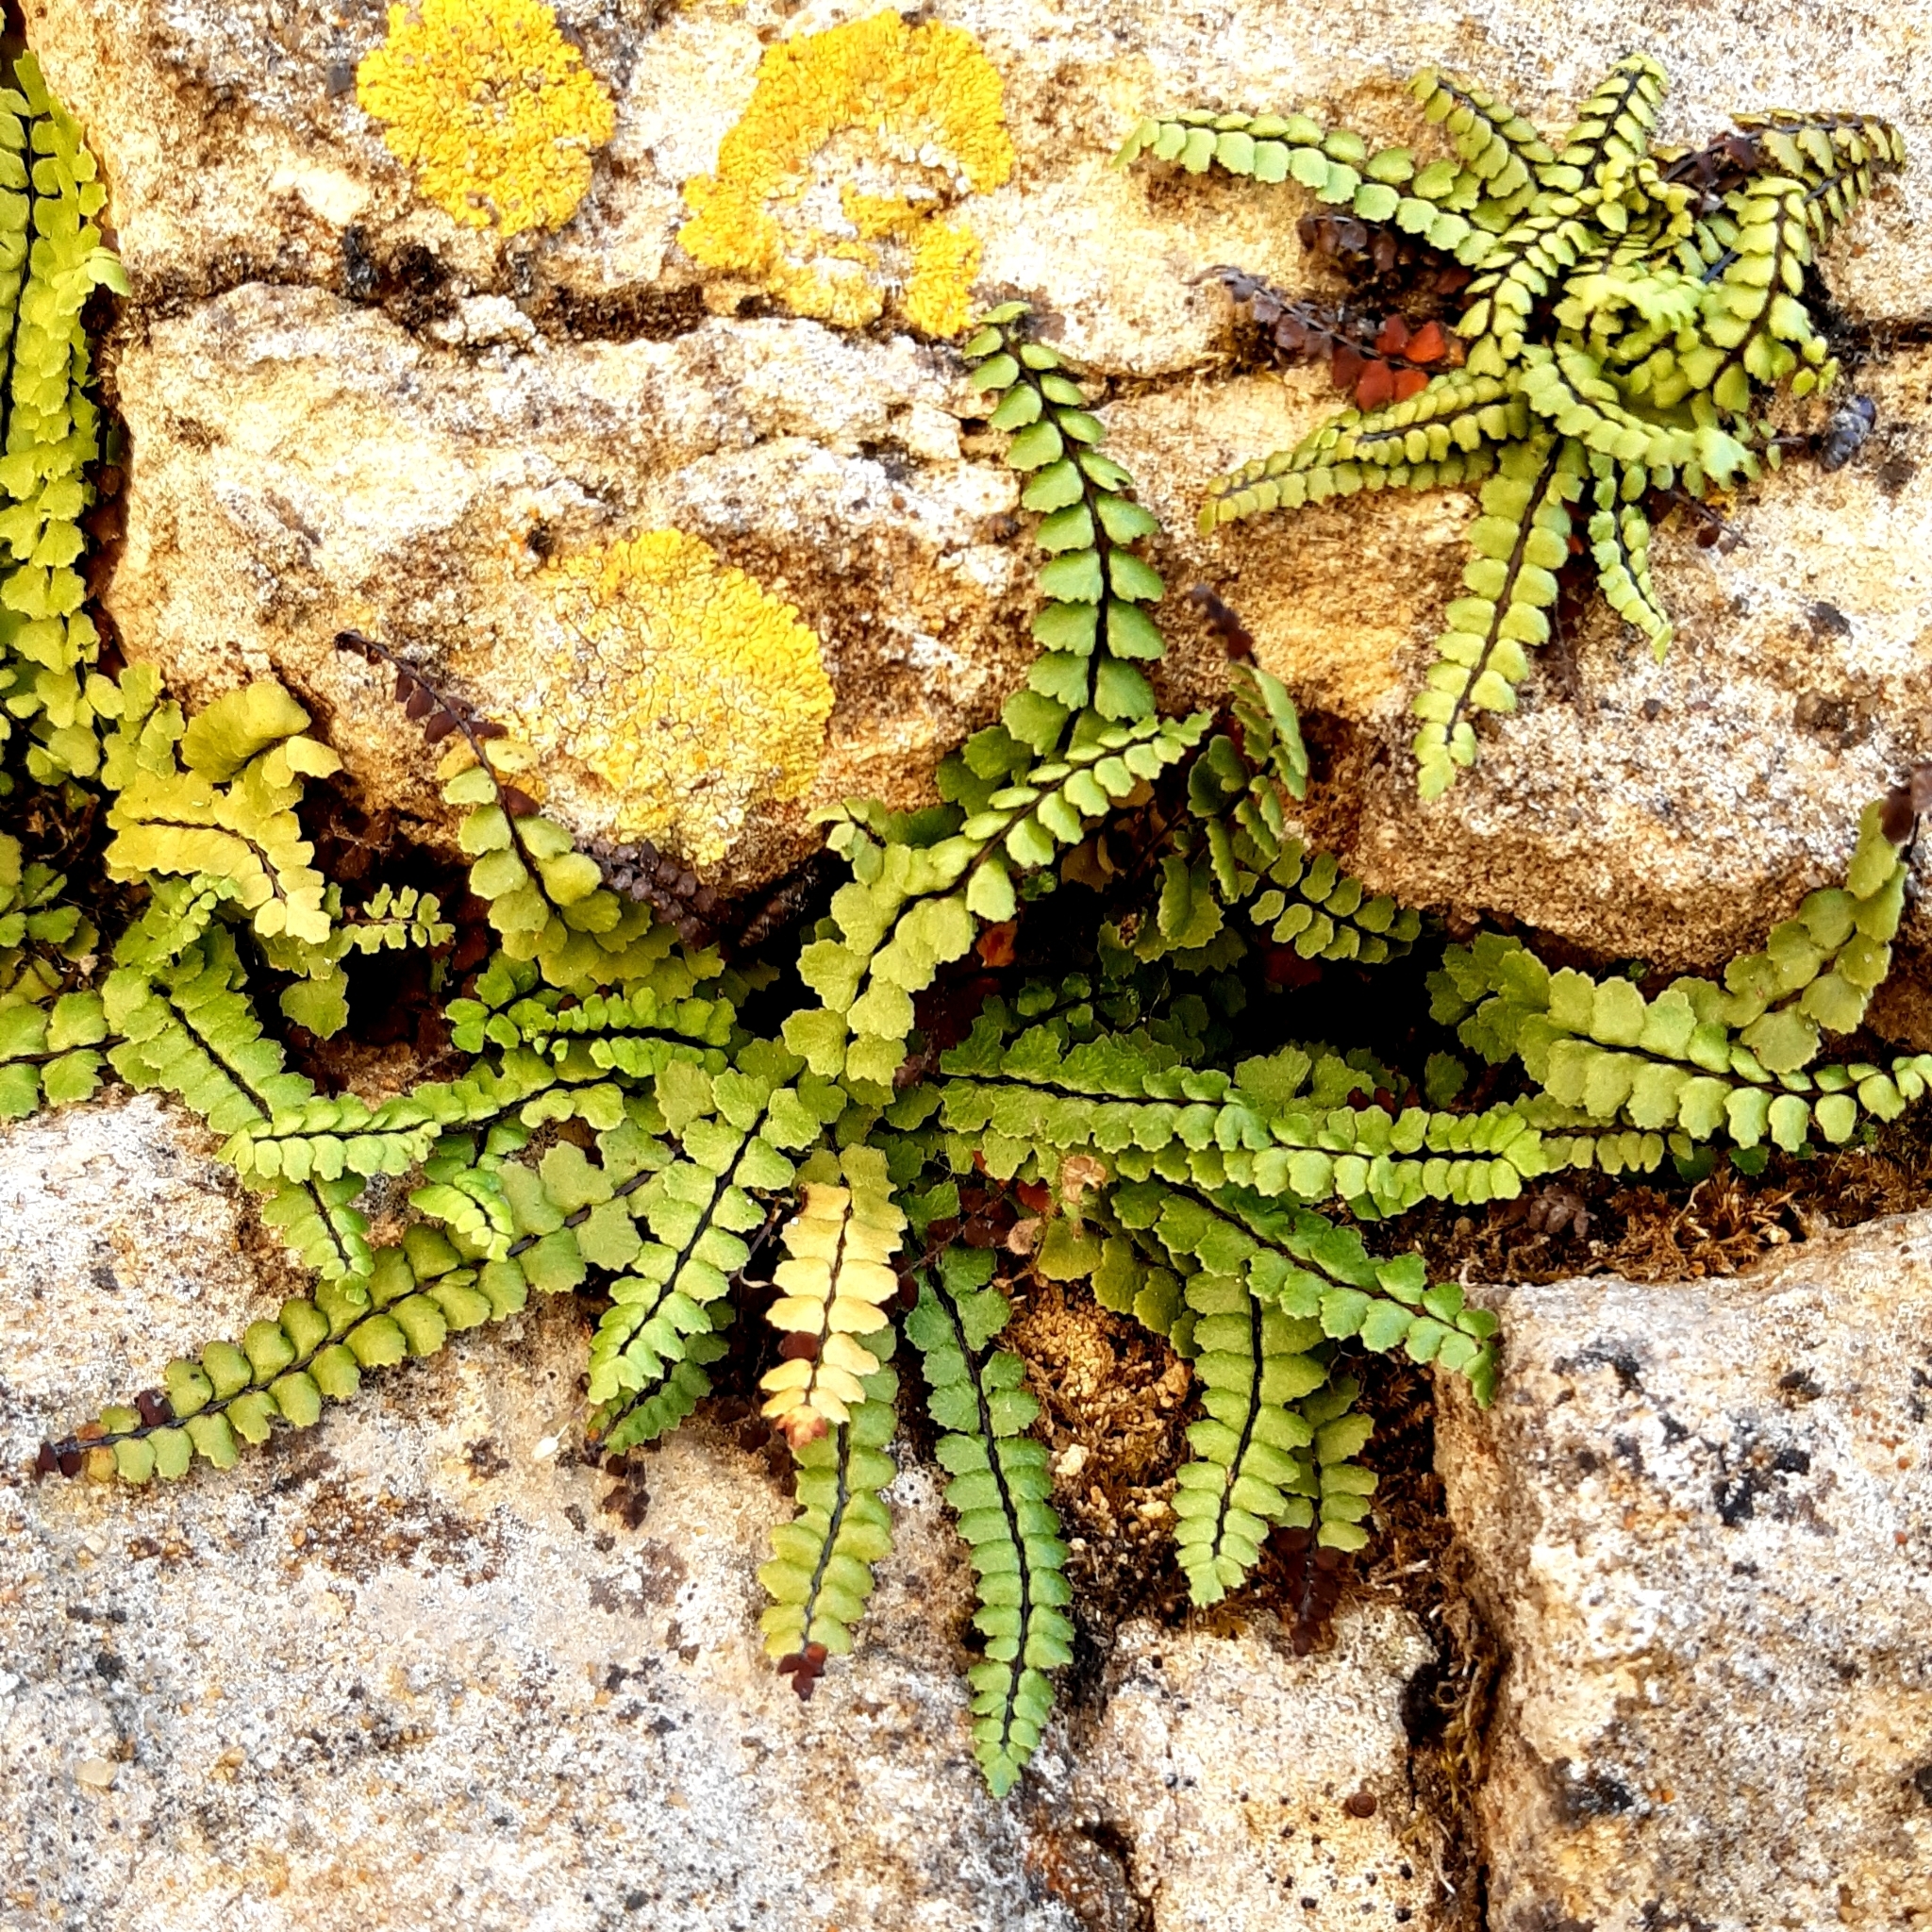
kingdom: Plantae
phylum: Tracheophyta
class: Polypodiopsida
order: Polypodiales
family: Aspleniaceae
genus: Asplenium
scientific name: Asplenium trichomanes
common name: Maidenhair spleenwort
